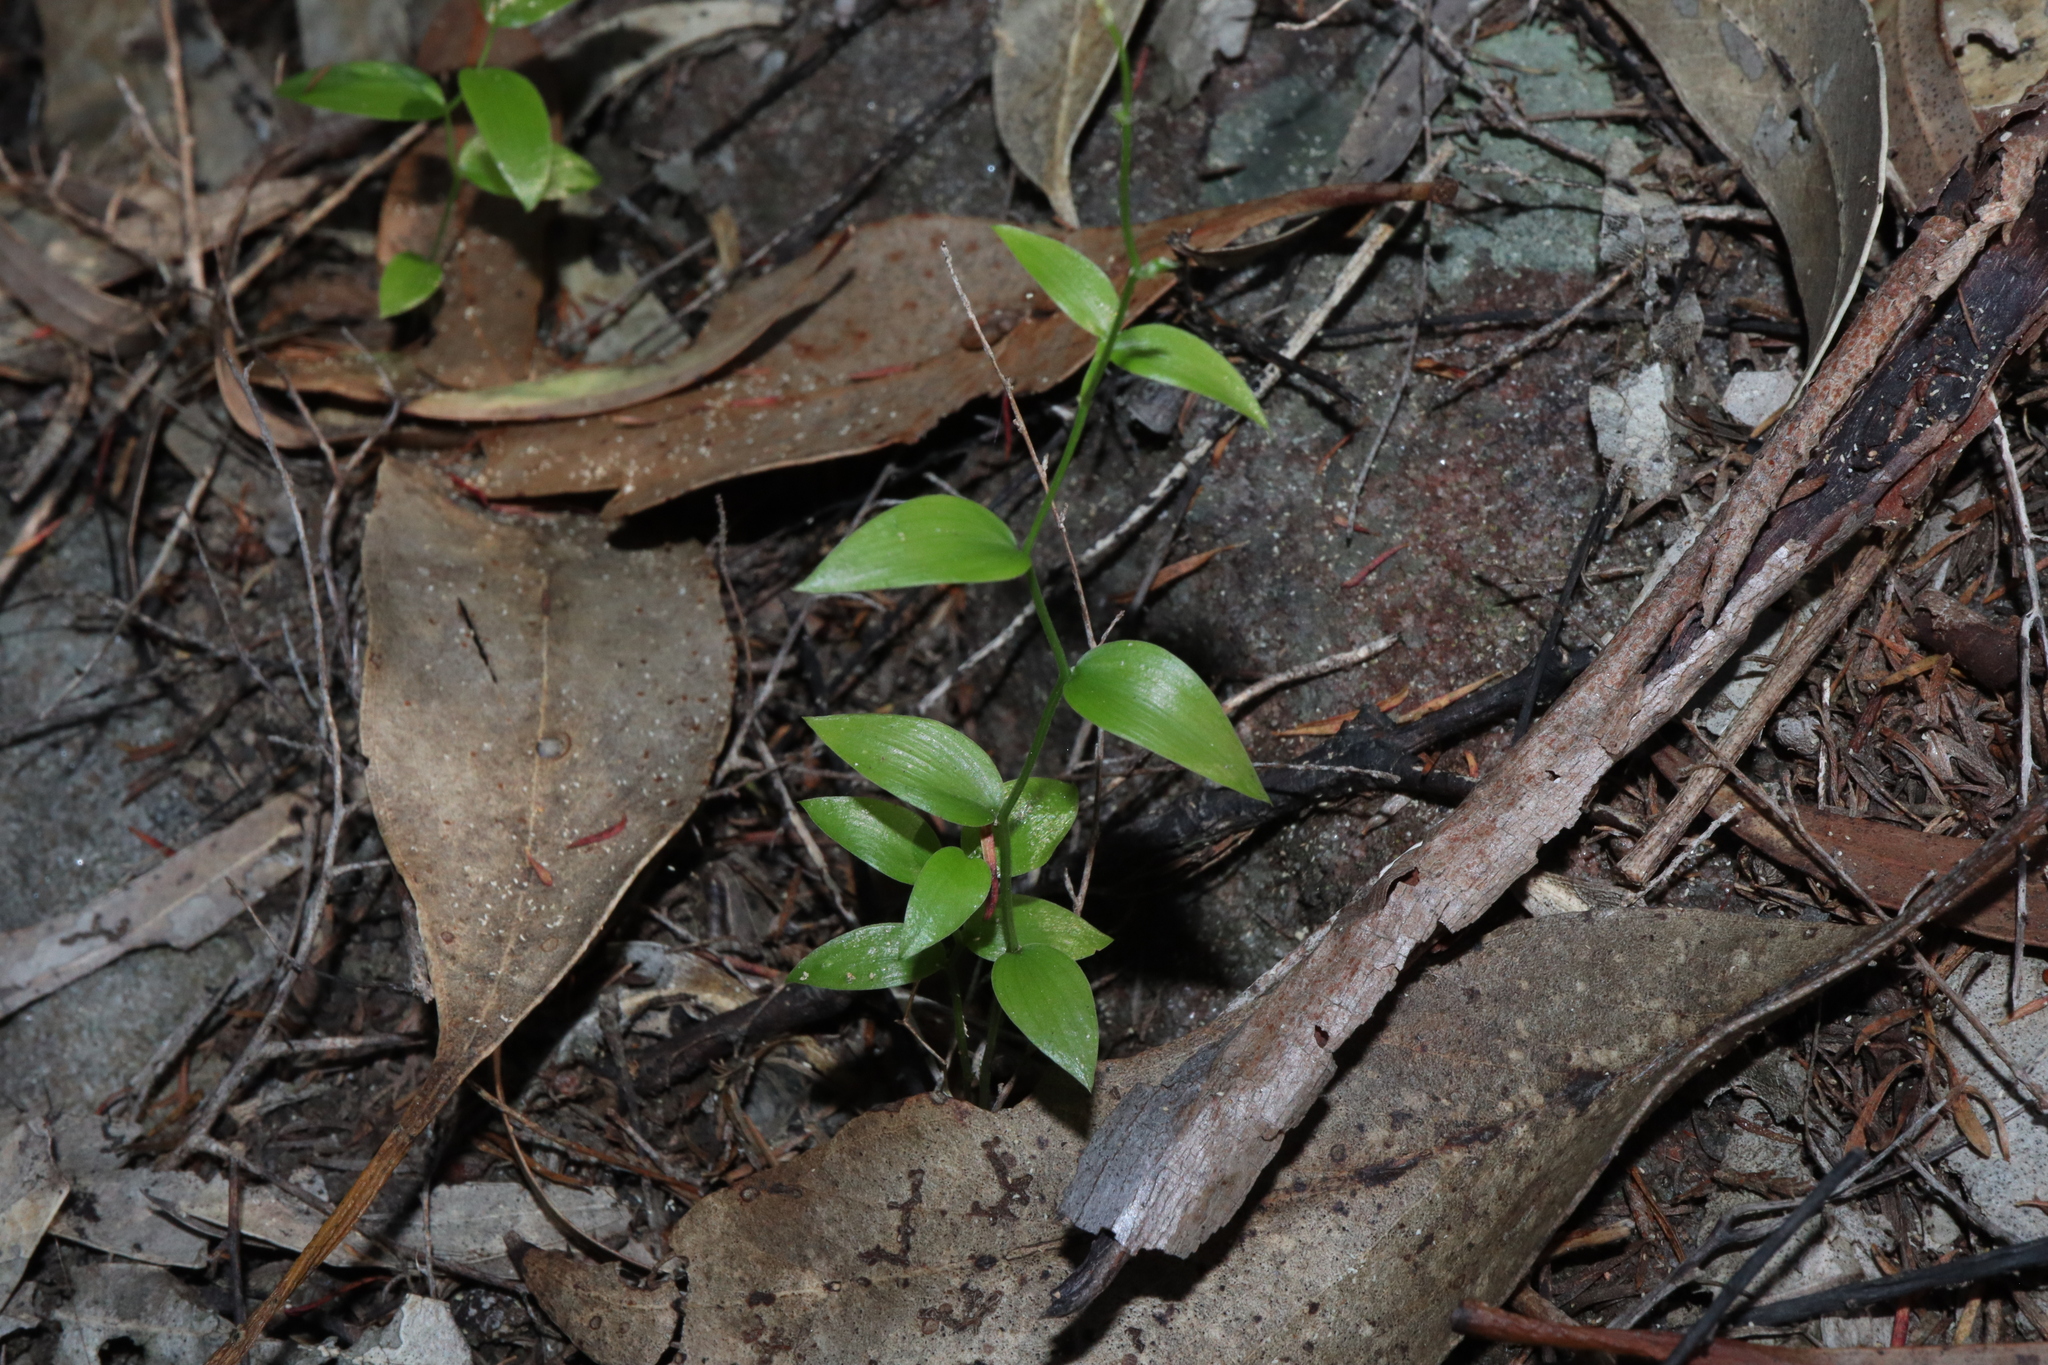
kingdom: Plantae
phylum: Tracheophyta
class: Liliopsida
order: Asparagales
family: Asparagaceae
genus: Asparagus
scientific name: Asparagus asparagoides
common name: African asparagus fern
